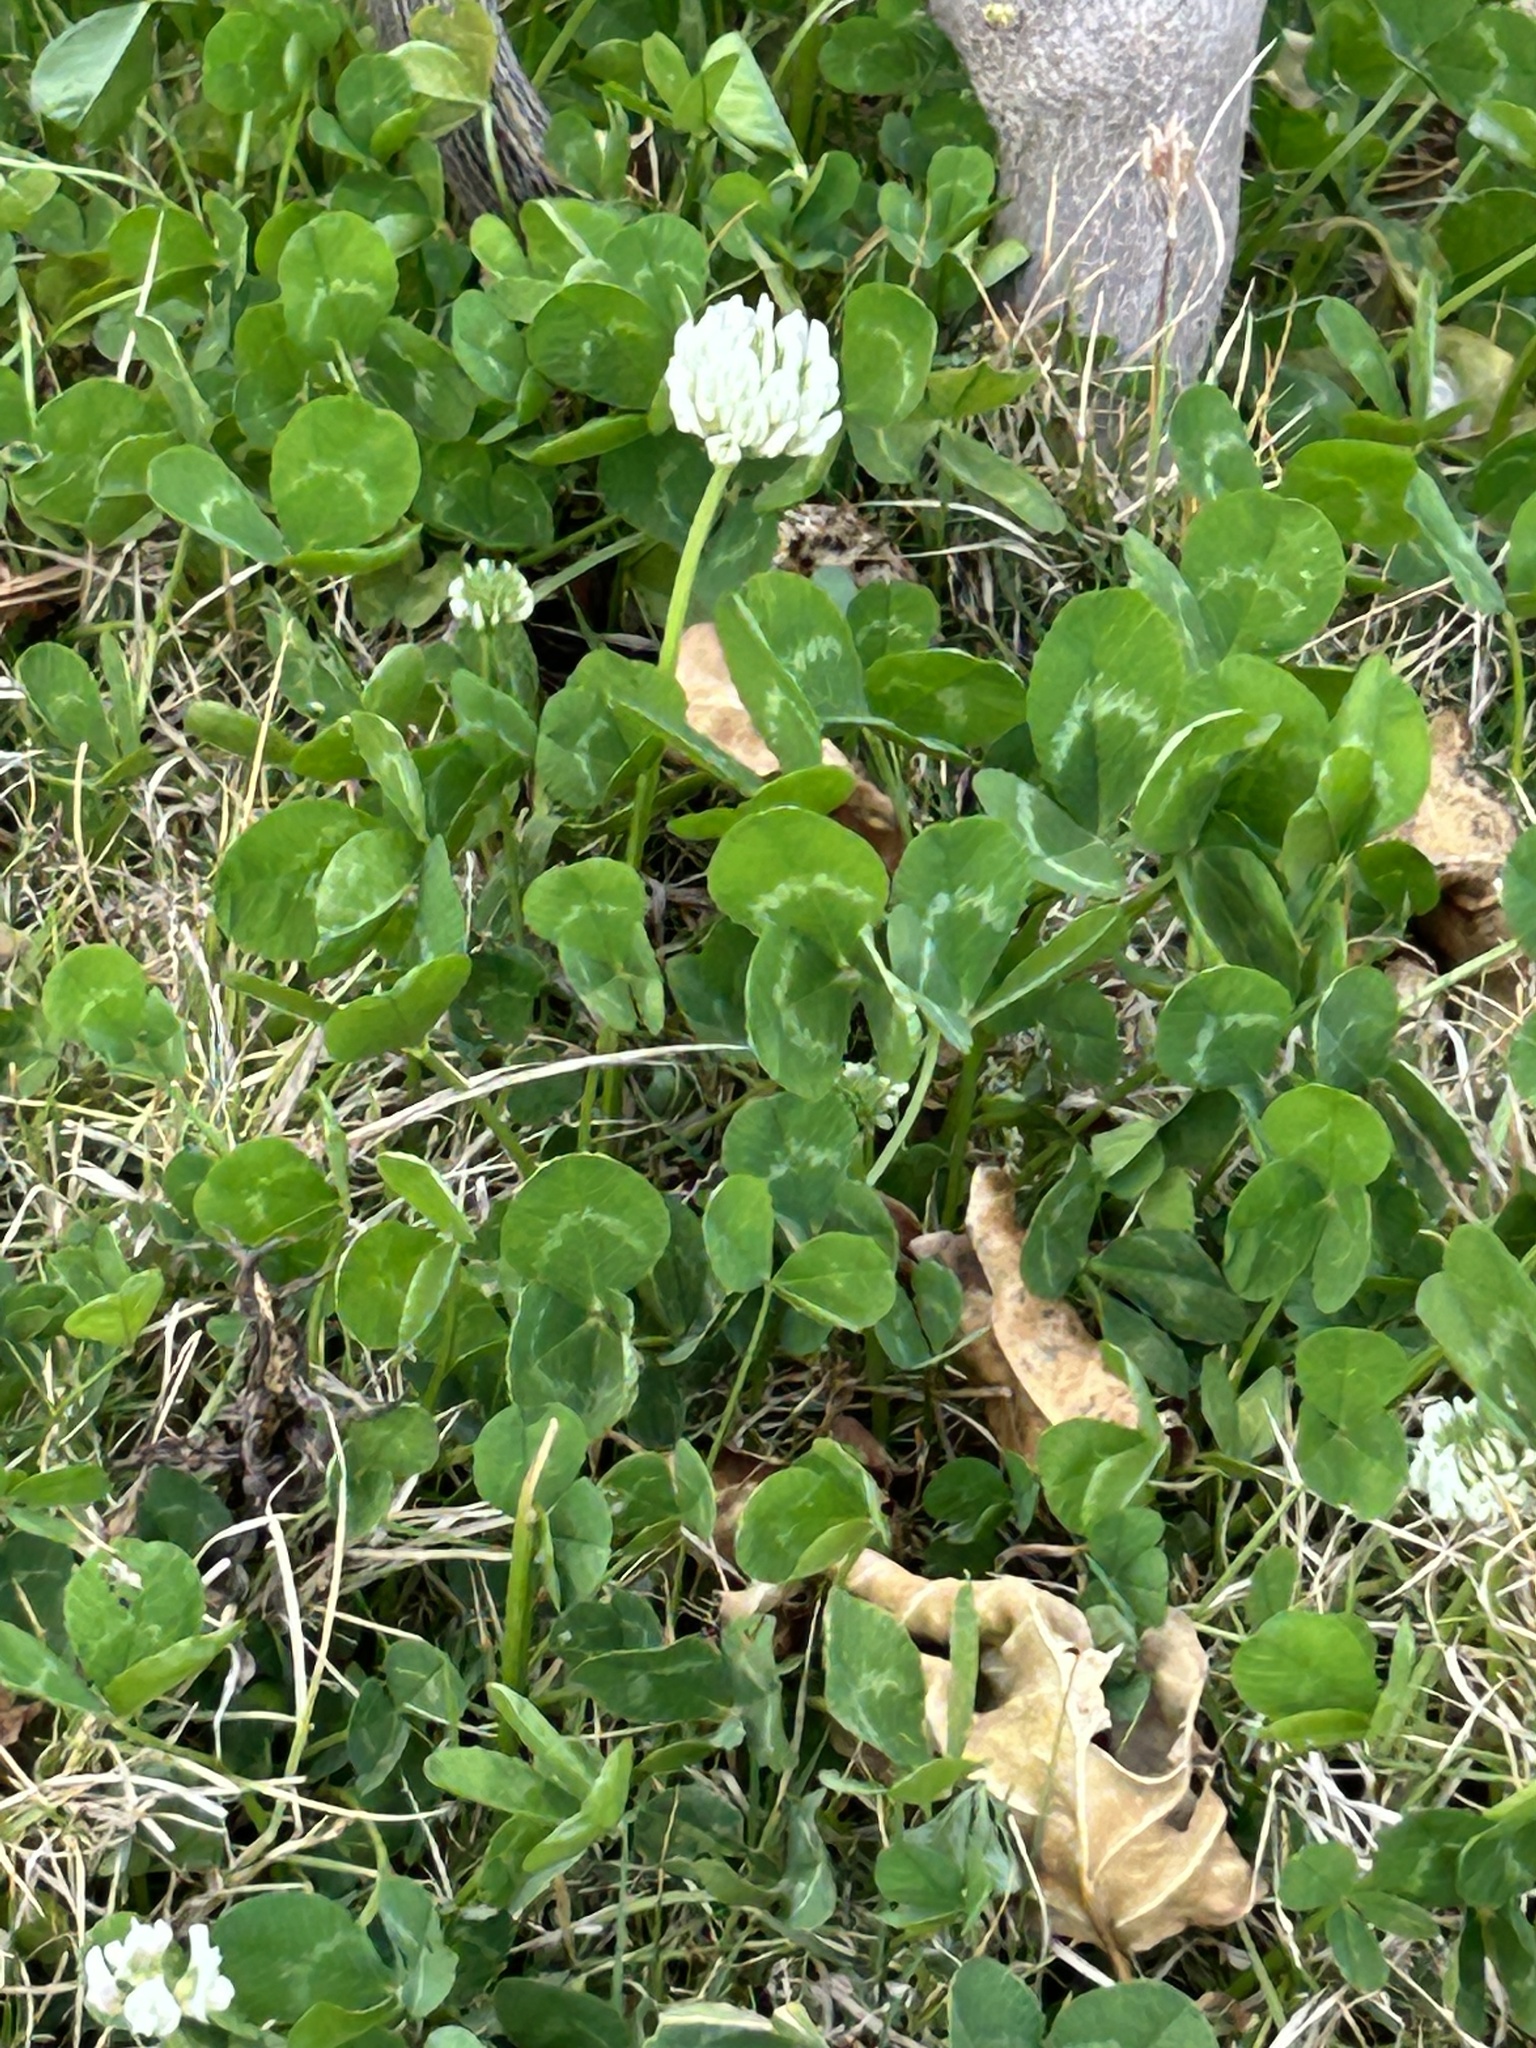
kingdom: Plantae
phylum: Tracheophyta
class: Magnoliopsida
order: Fabales
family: Fabaceae
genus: Trifolium
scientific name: Trifolium repens
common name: White clover
